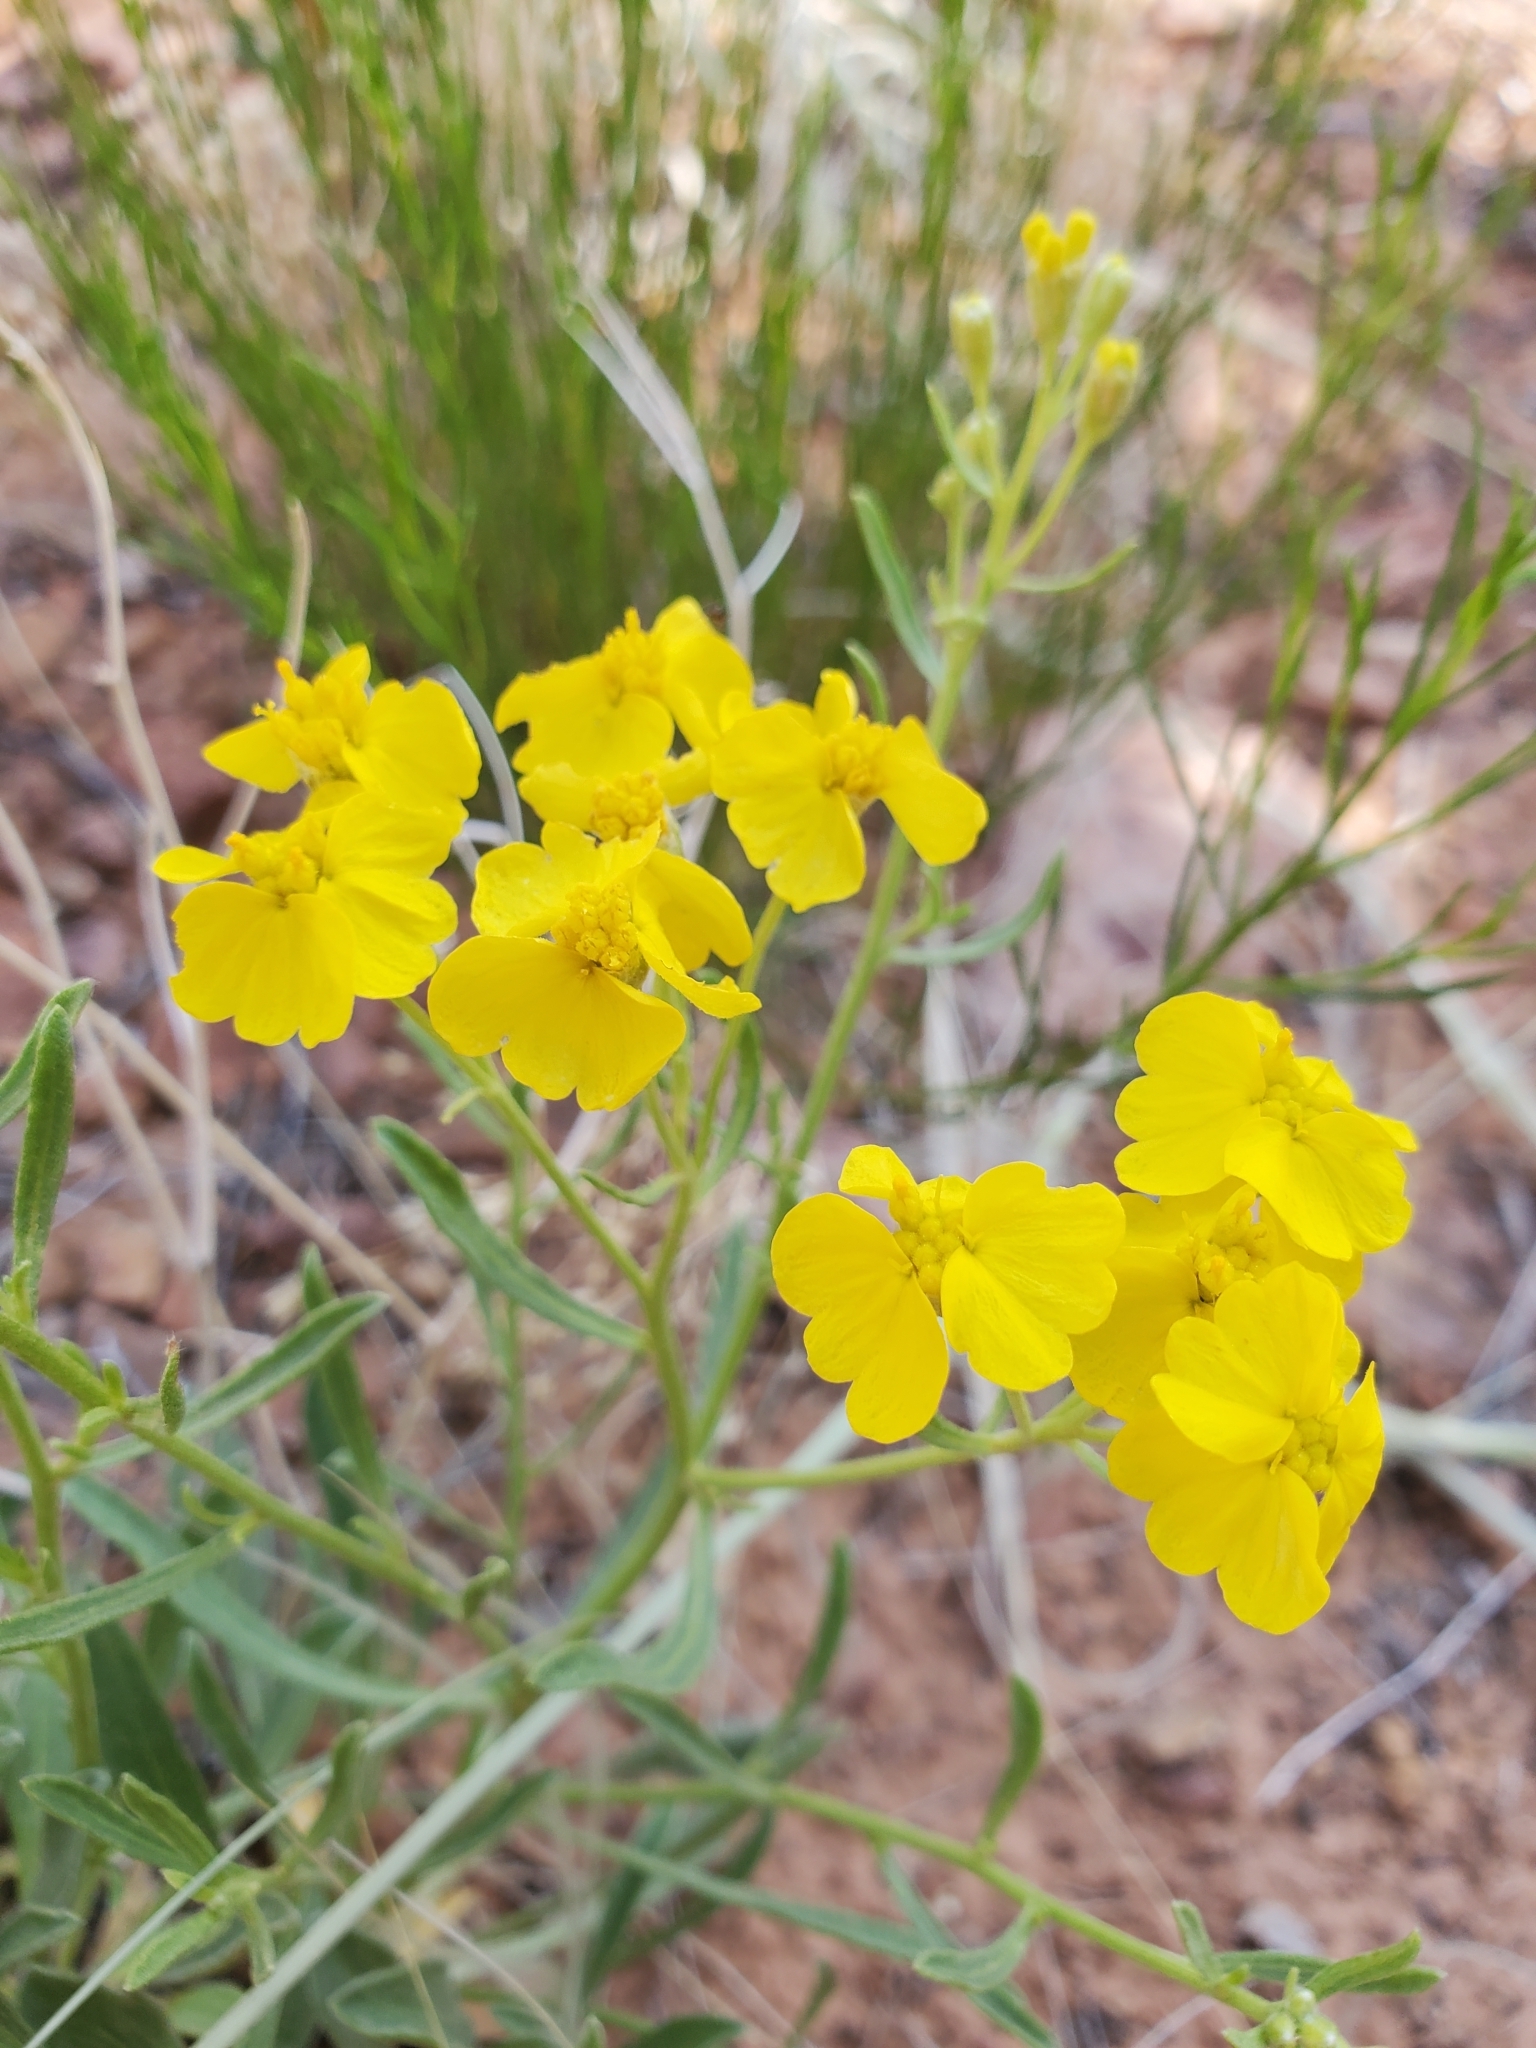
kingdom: Plantae
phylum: Tracheophyta
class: Magnoliopsida
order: Asterales
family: Asteraceae
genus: Psilostrophe
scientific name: Psilostrophe sparsiflora
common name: Green-stem paper-flower
